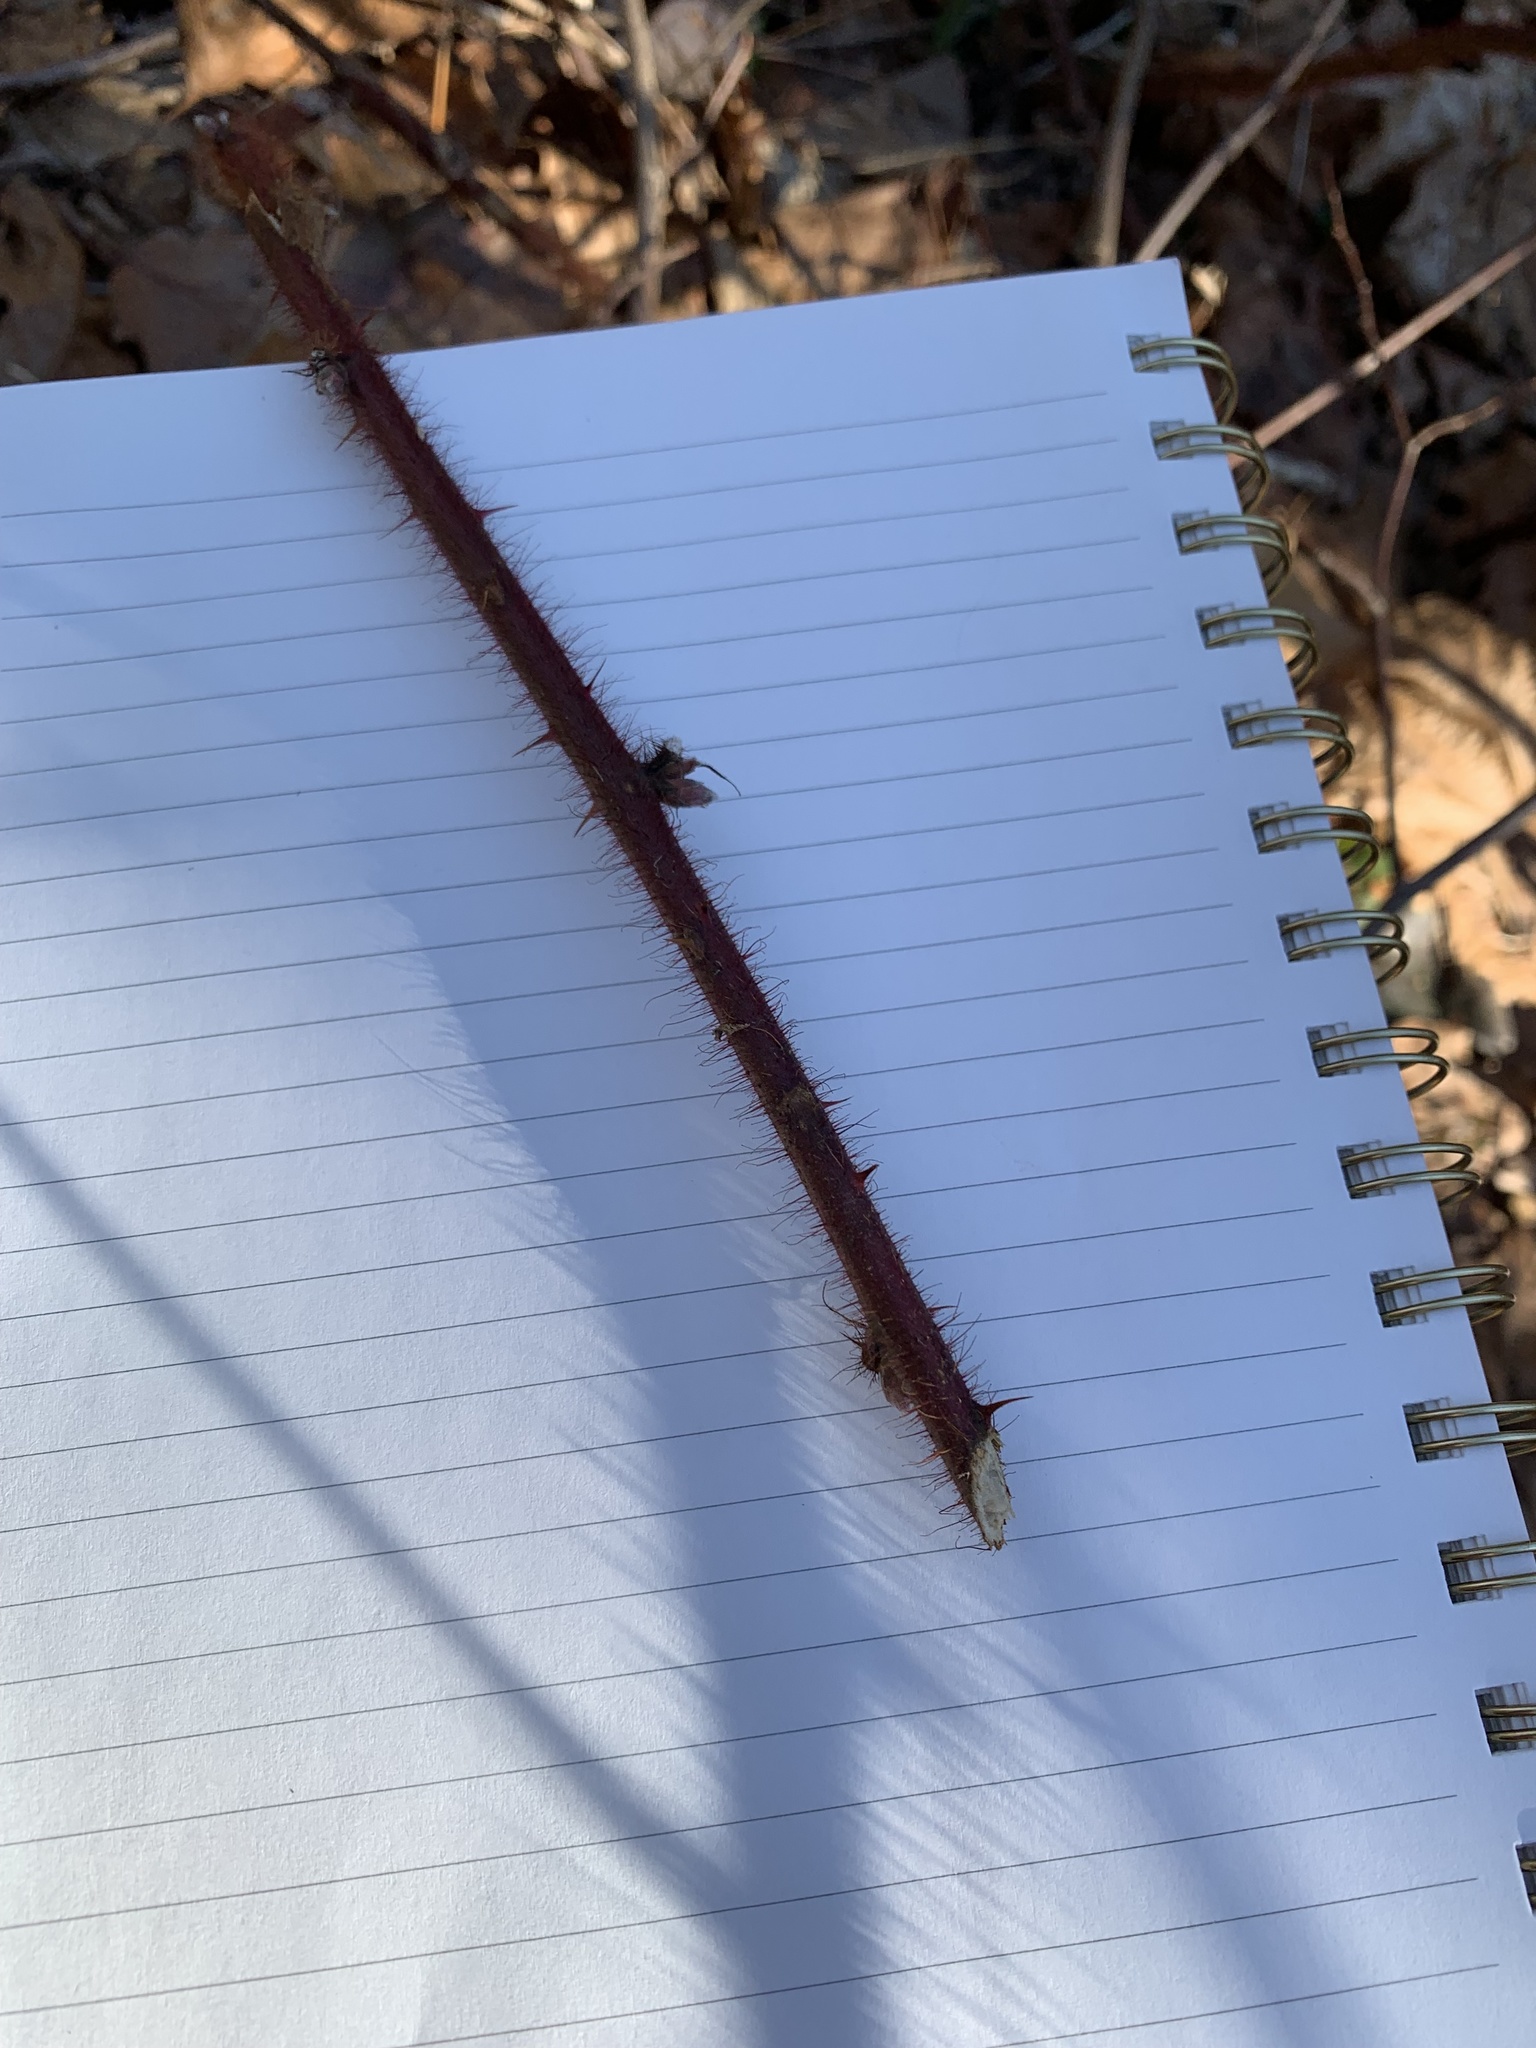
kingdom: Plantae
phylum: Tracheophyta
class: Magnoliopsida
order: Rosales
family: Rosaceae
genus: Rubus
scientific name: Rubus phoenicolasius
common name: Japanese wineberry
